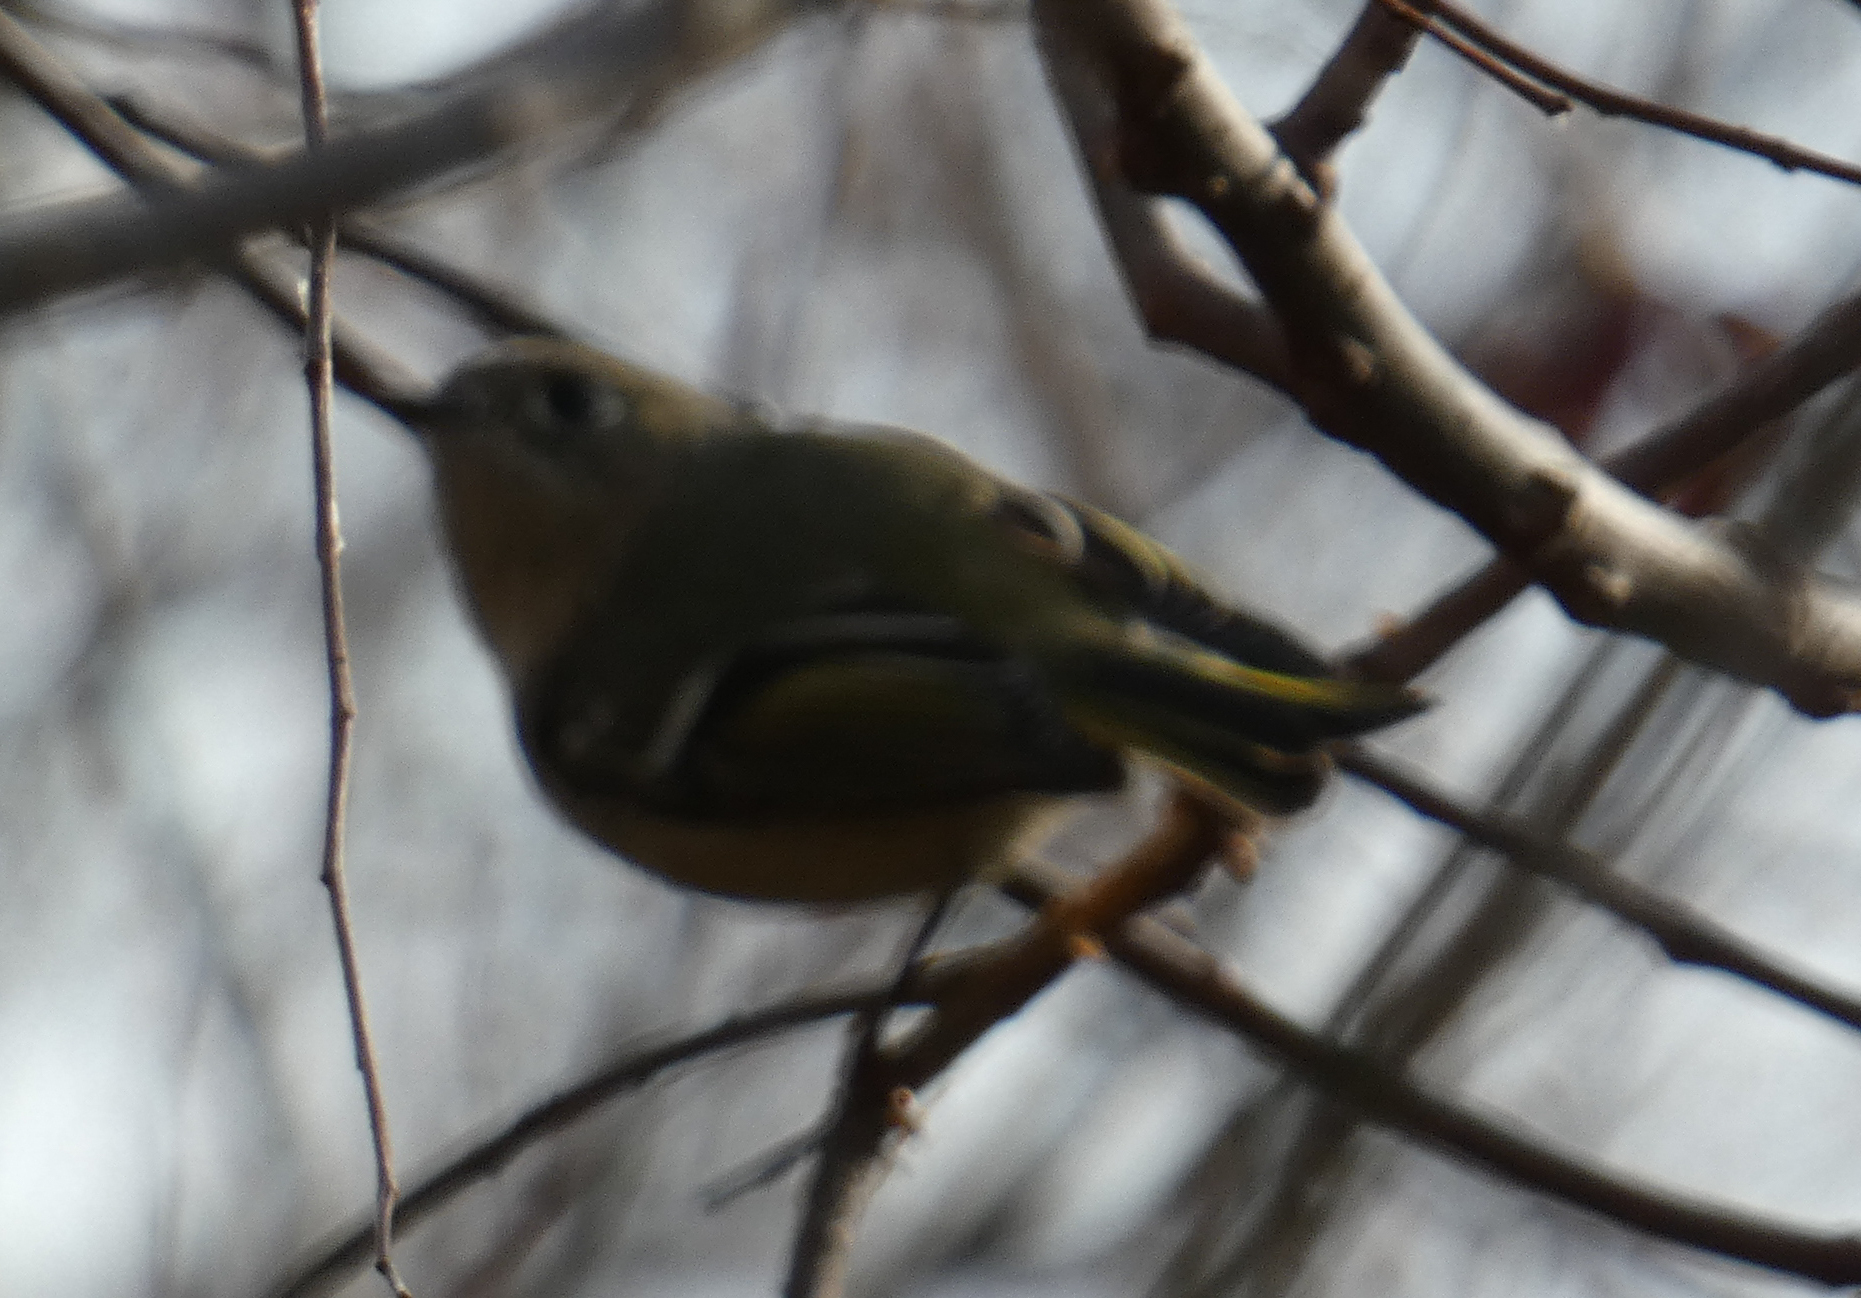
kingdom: Animalia
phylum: Chordata
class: Aves
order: Passeriformes
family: Regulidae
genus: Regulus
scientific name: Regulus calendula
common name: Ruby-crowned kinglet
